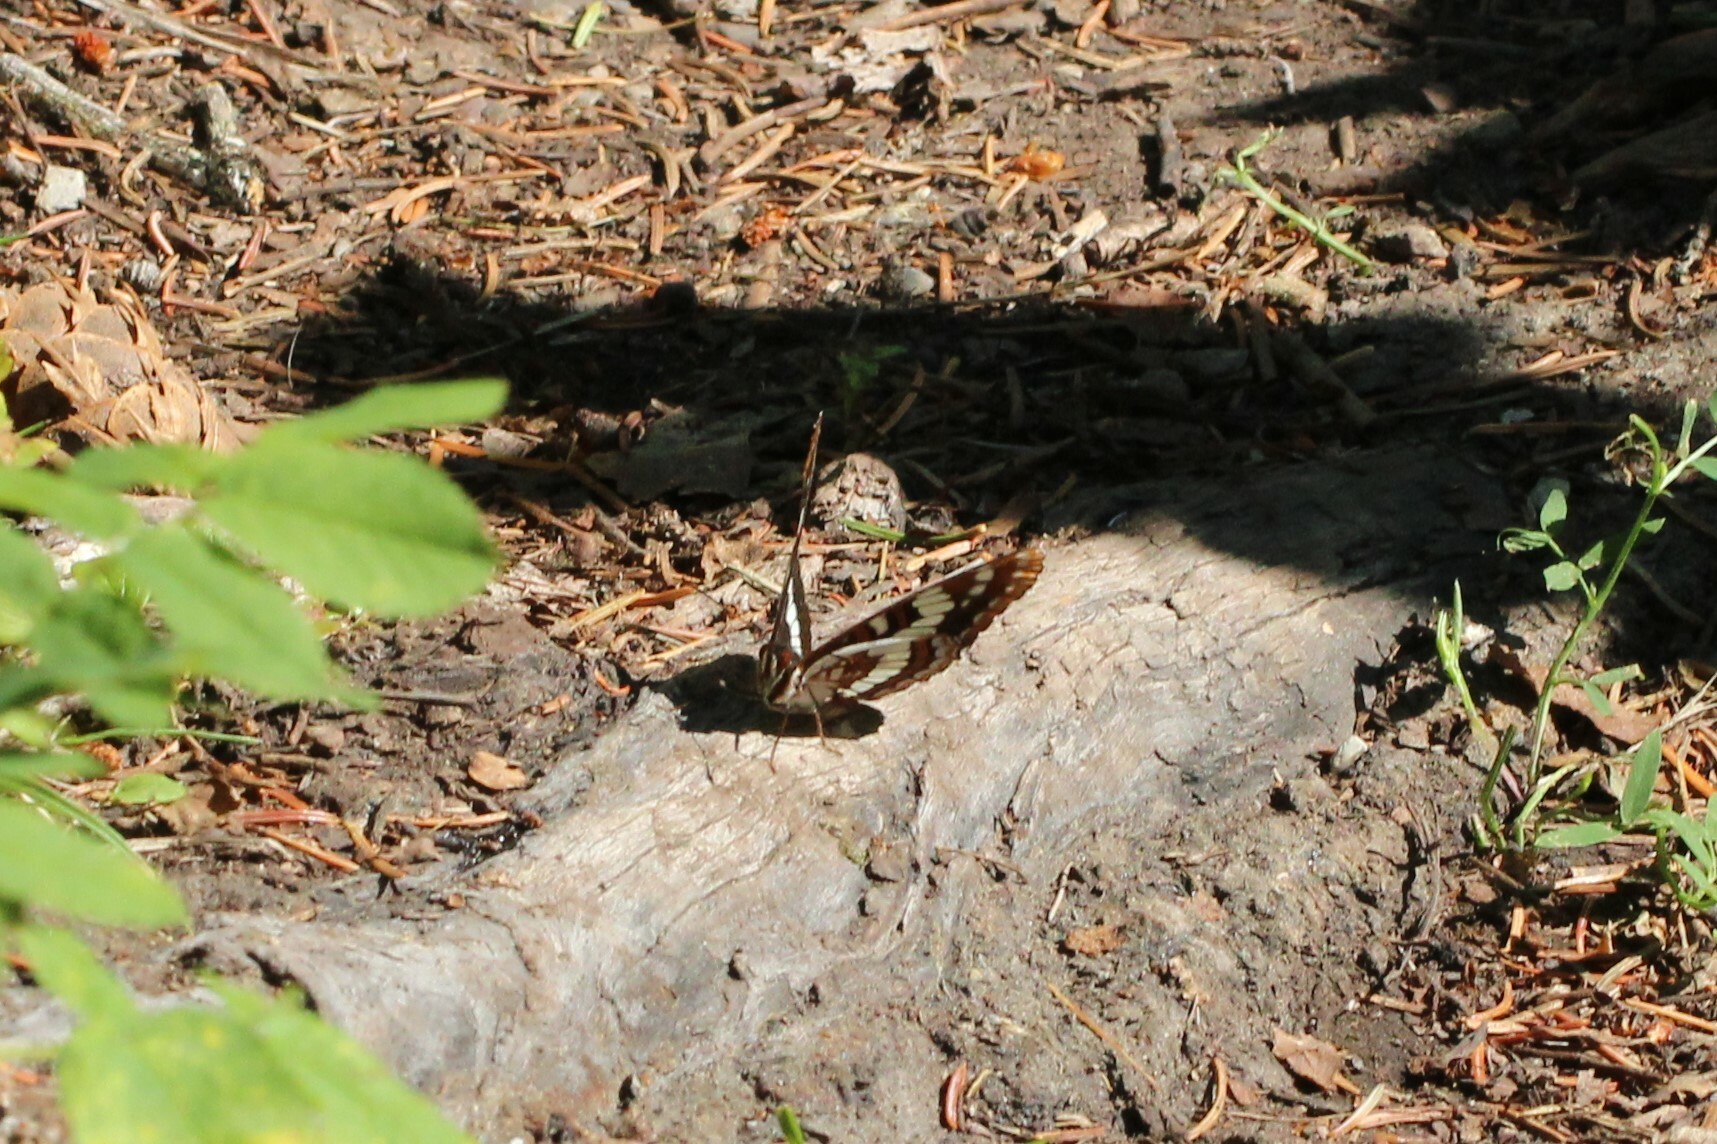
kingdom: Animalia
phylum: Arthropoda
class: Insecta
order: Lepidoptera
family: Nymphalidae
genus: Limenitis
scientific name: Limenitis lorquini
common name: Lorquin's admiral
